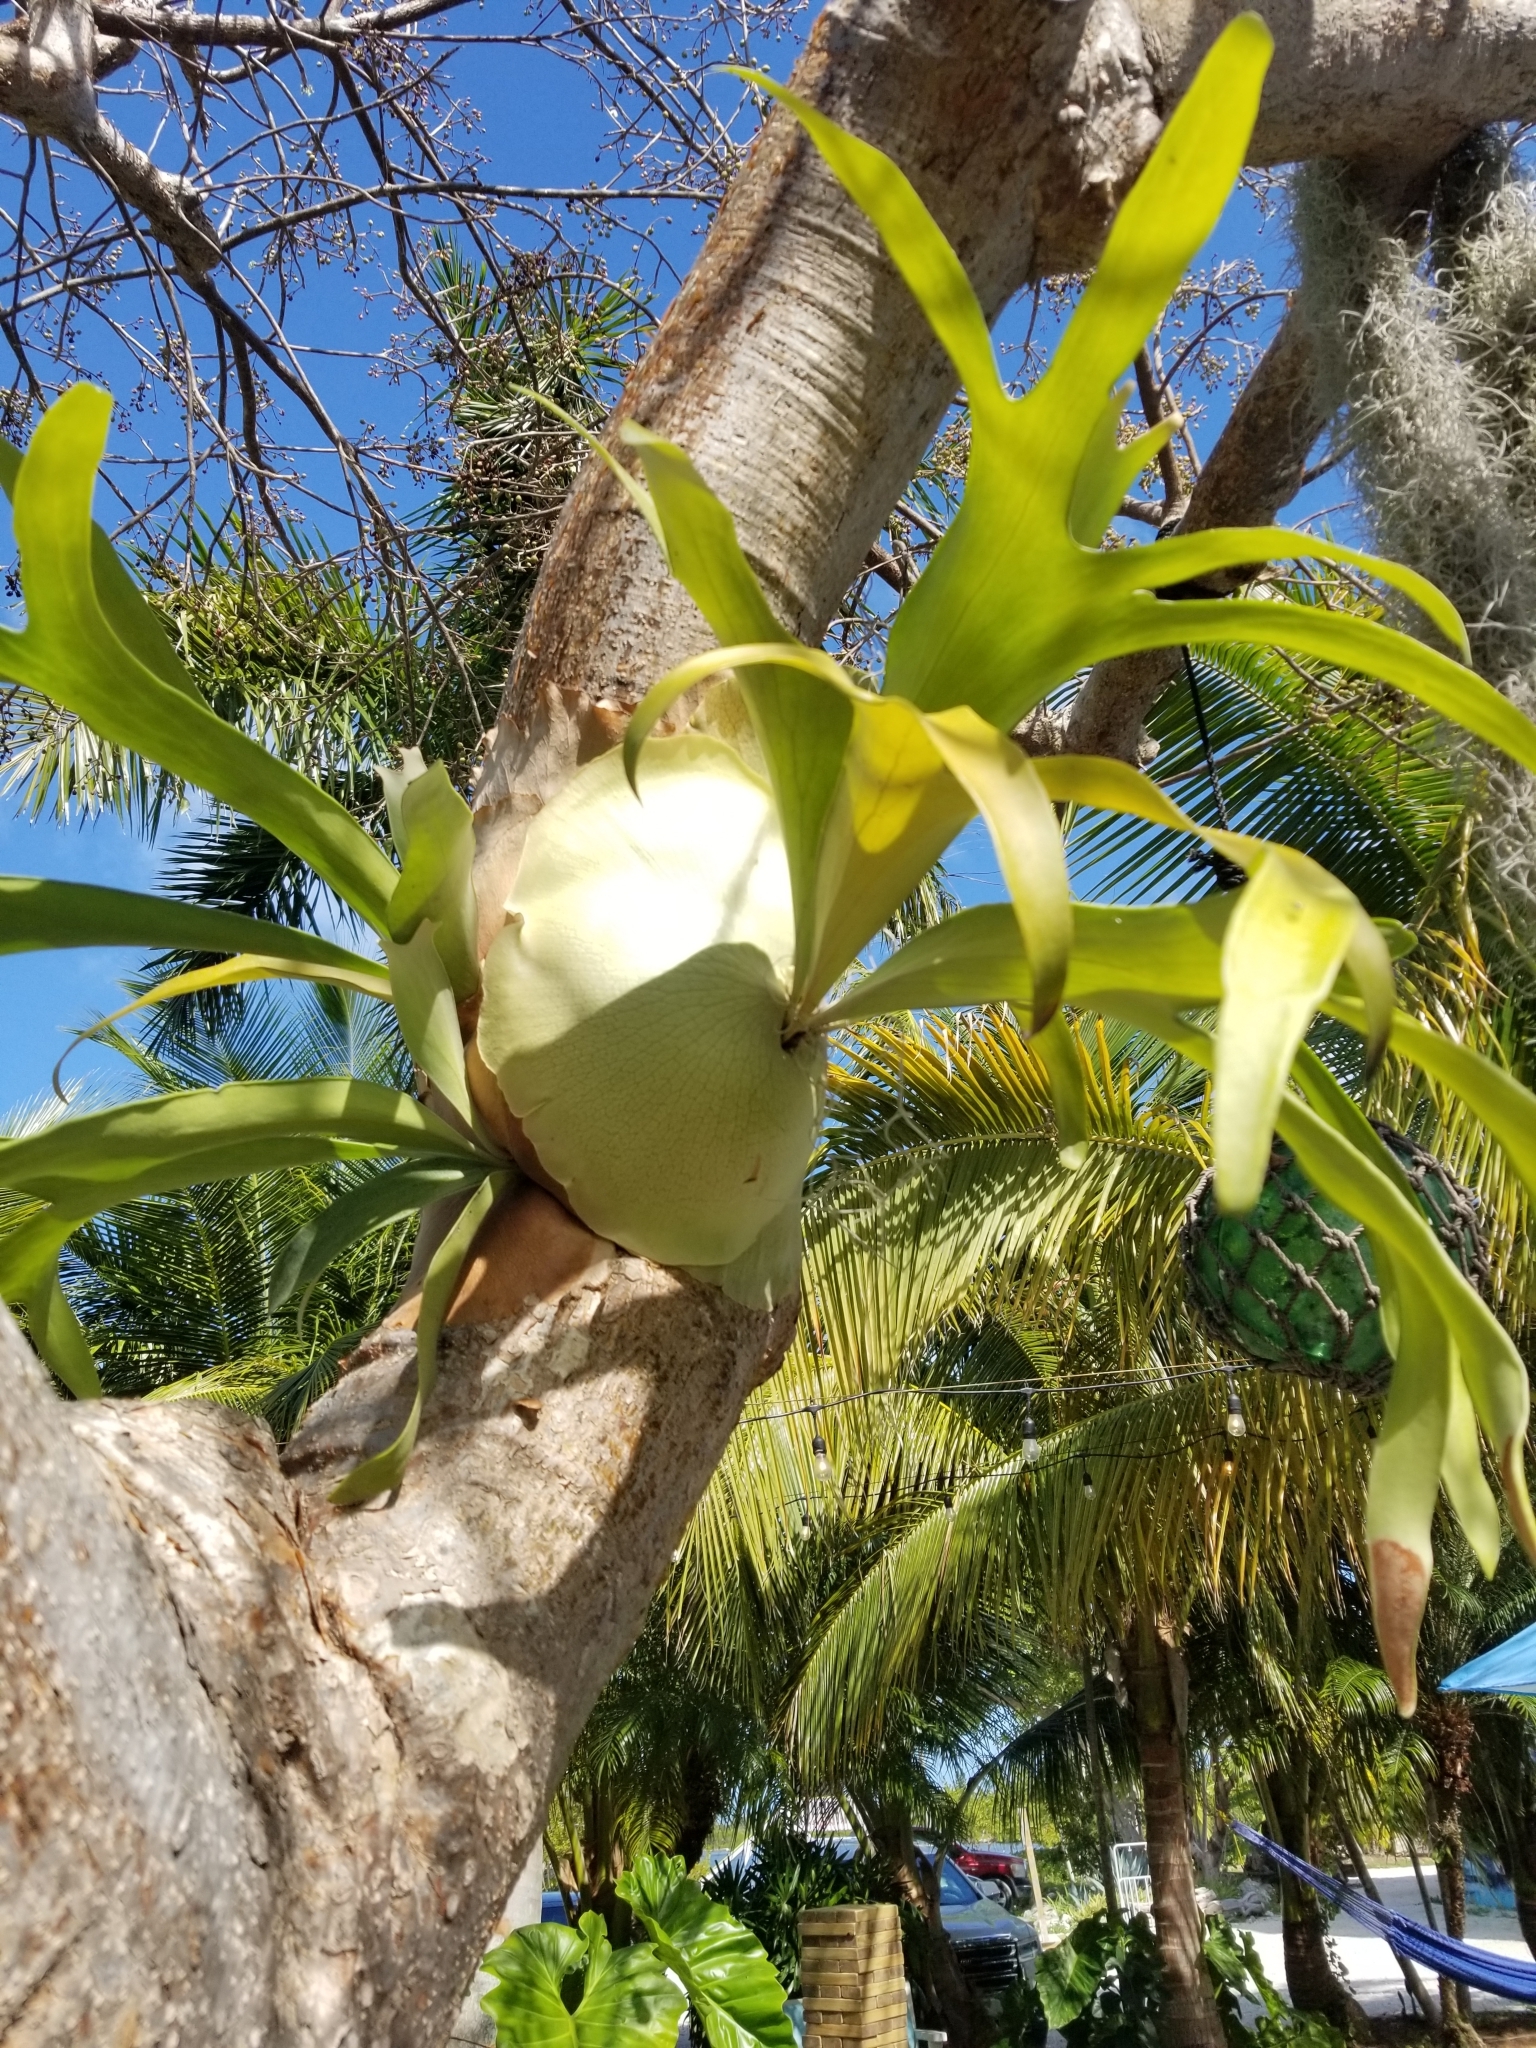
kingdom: Plantae
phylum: Tracheophyta
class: Polypodiopsida
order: Polypodiales
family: Polypodiaceae
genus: Platycerium
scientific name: Platycerium bifurcatum
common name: Elkhorn fern
